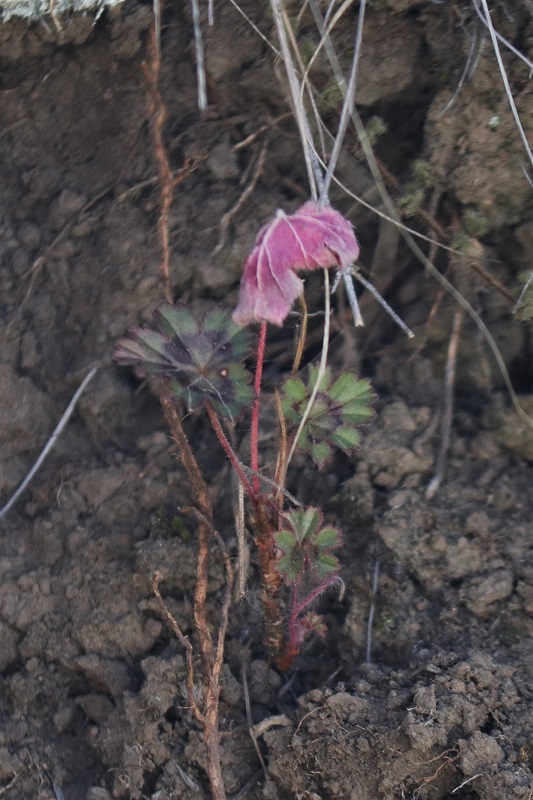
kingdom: Plantae
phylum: Tracheophyta
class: Magnoliopsida
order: Geraniales
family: Geraniaceae
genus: Pelargonium
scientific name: Pelargonium alchemilloides
